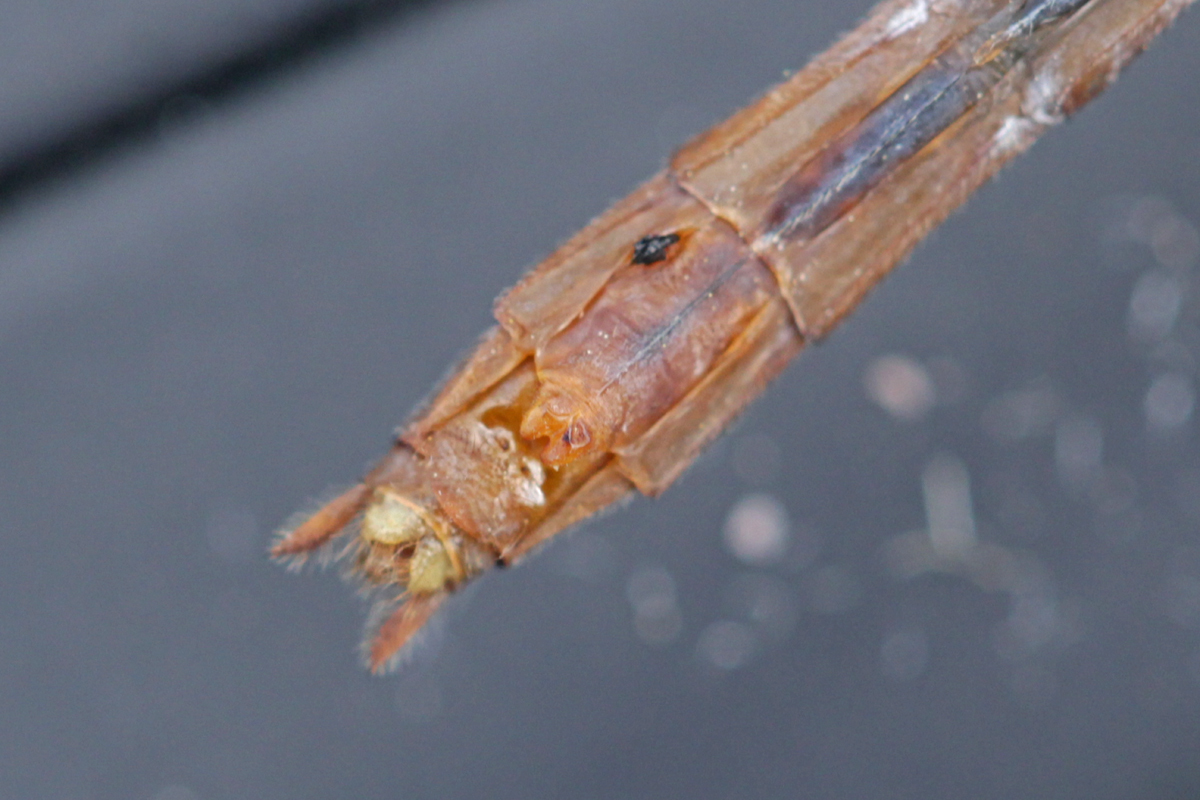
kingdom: Animalia
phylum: Arthropoda
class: Insecta
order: Odonata
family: Libellulidae
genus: Sympetrum
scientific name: Sympetrum rubicundulum
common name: Ruby meadowhawk
